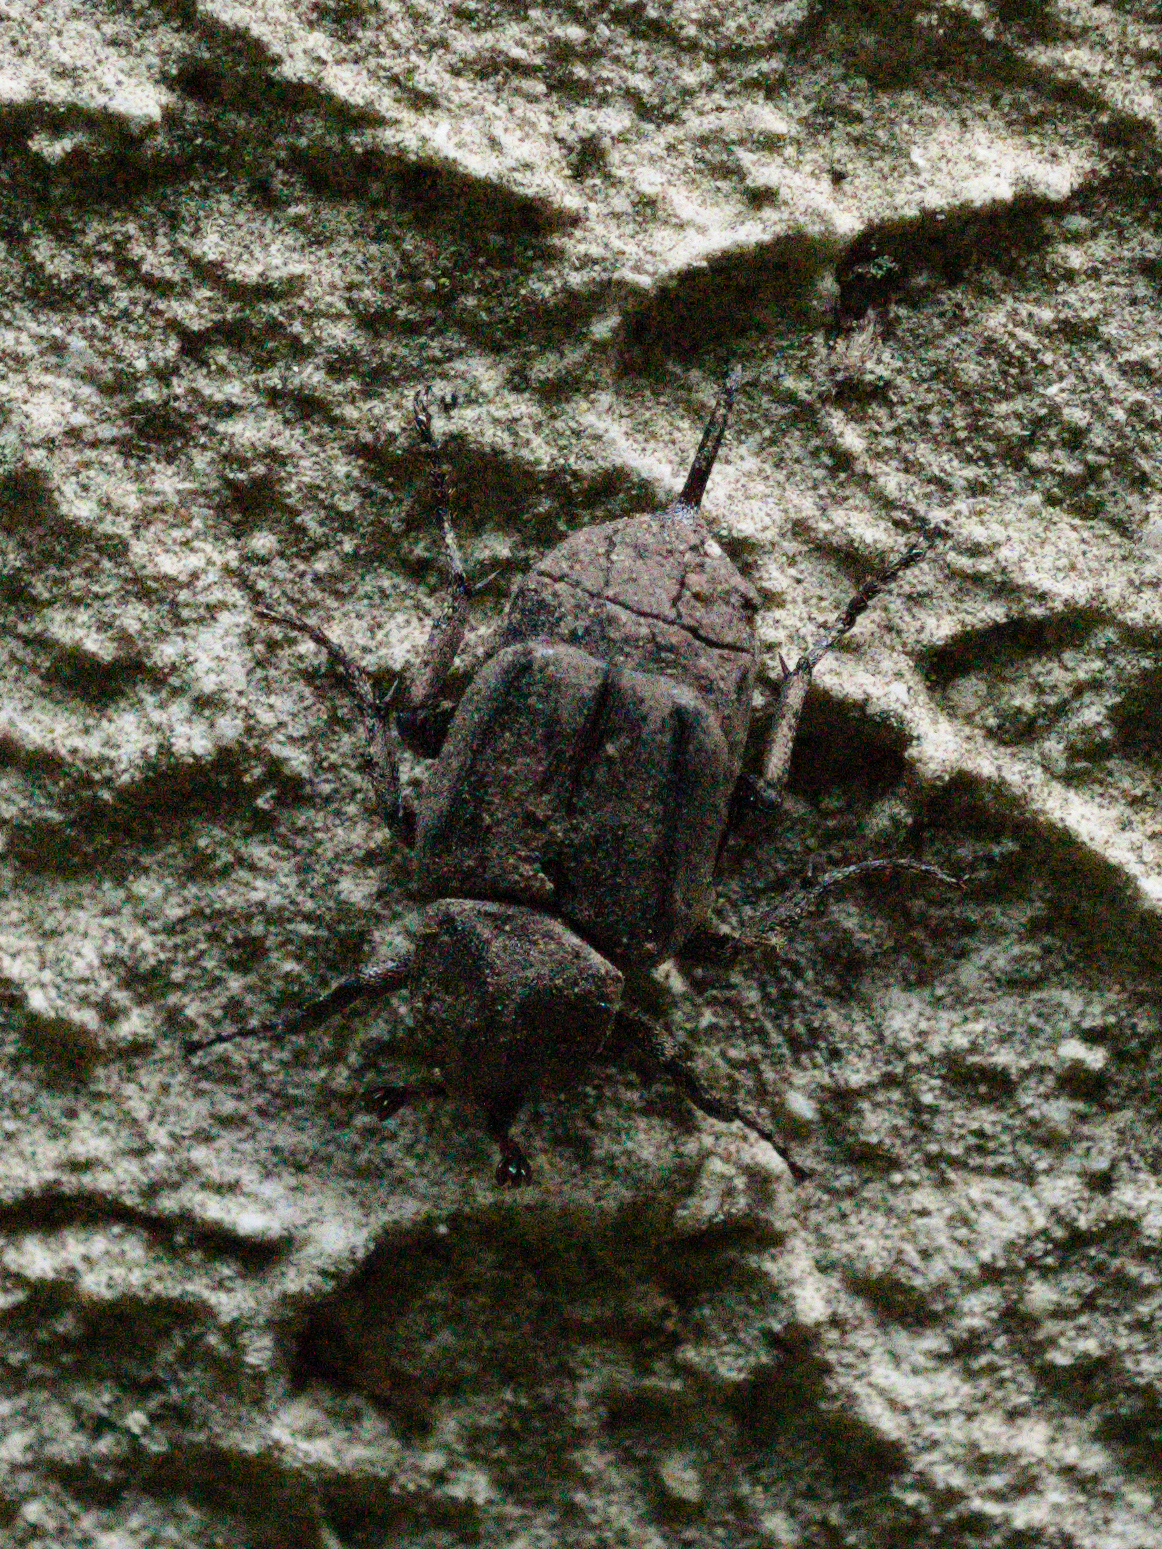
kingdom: Animalia
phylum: Arthropoda
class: Insecta
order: Coleoptera
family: Scarabaeidae
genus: Valgus
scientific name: Valgus hemipterus
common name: Bug flower chafer
